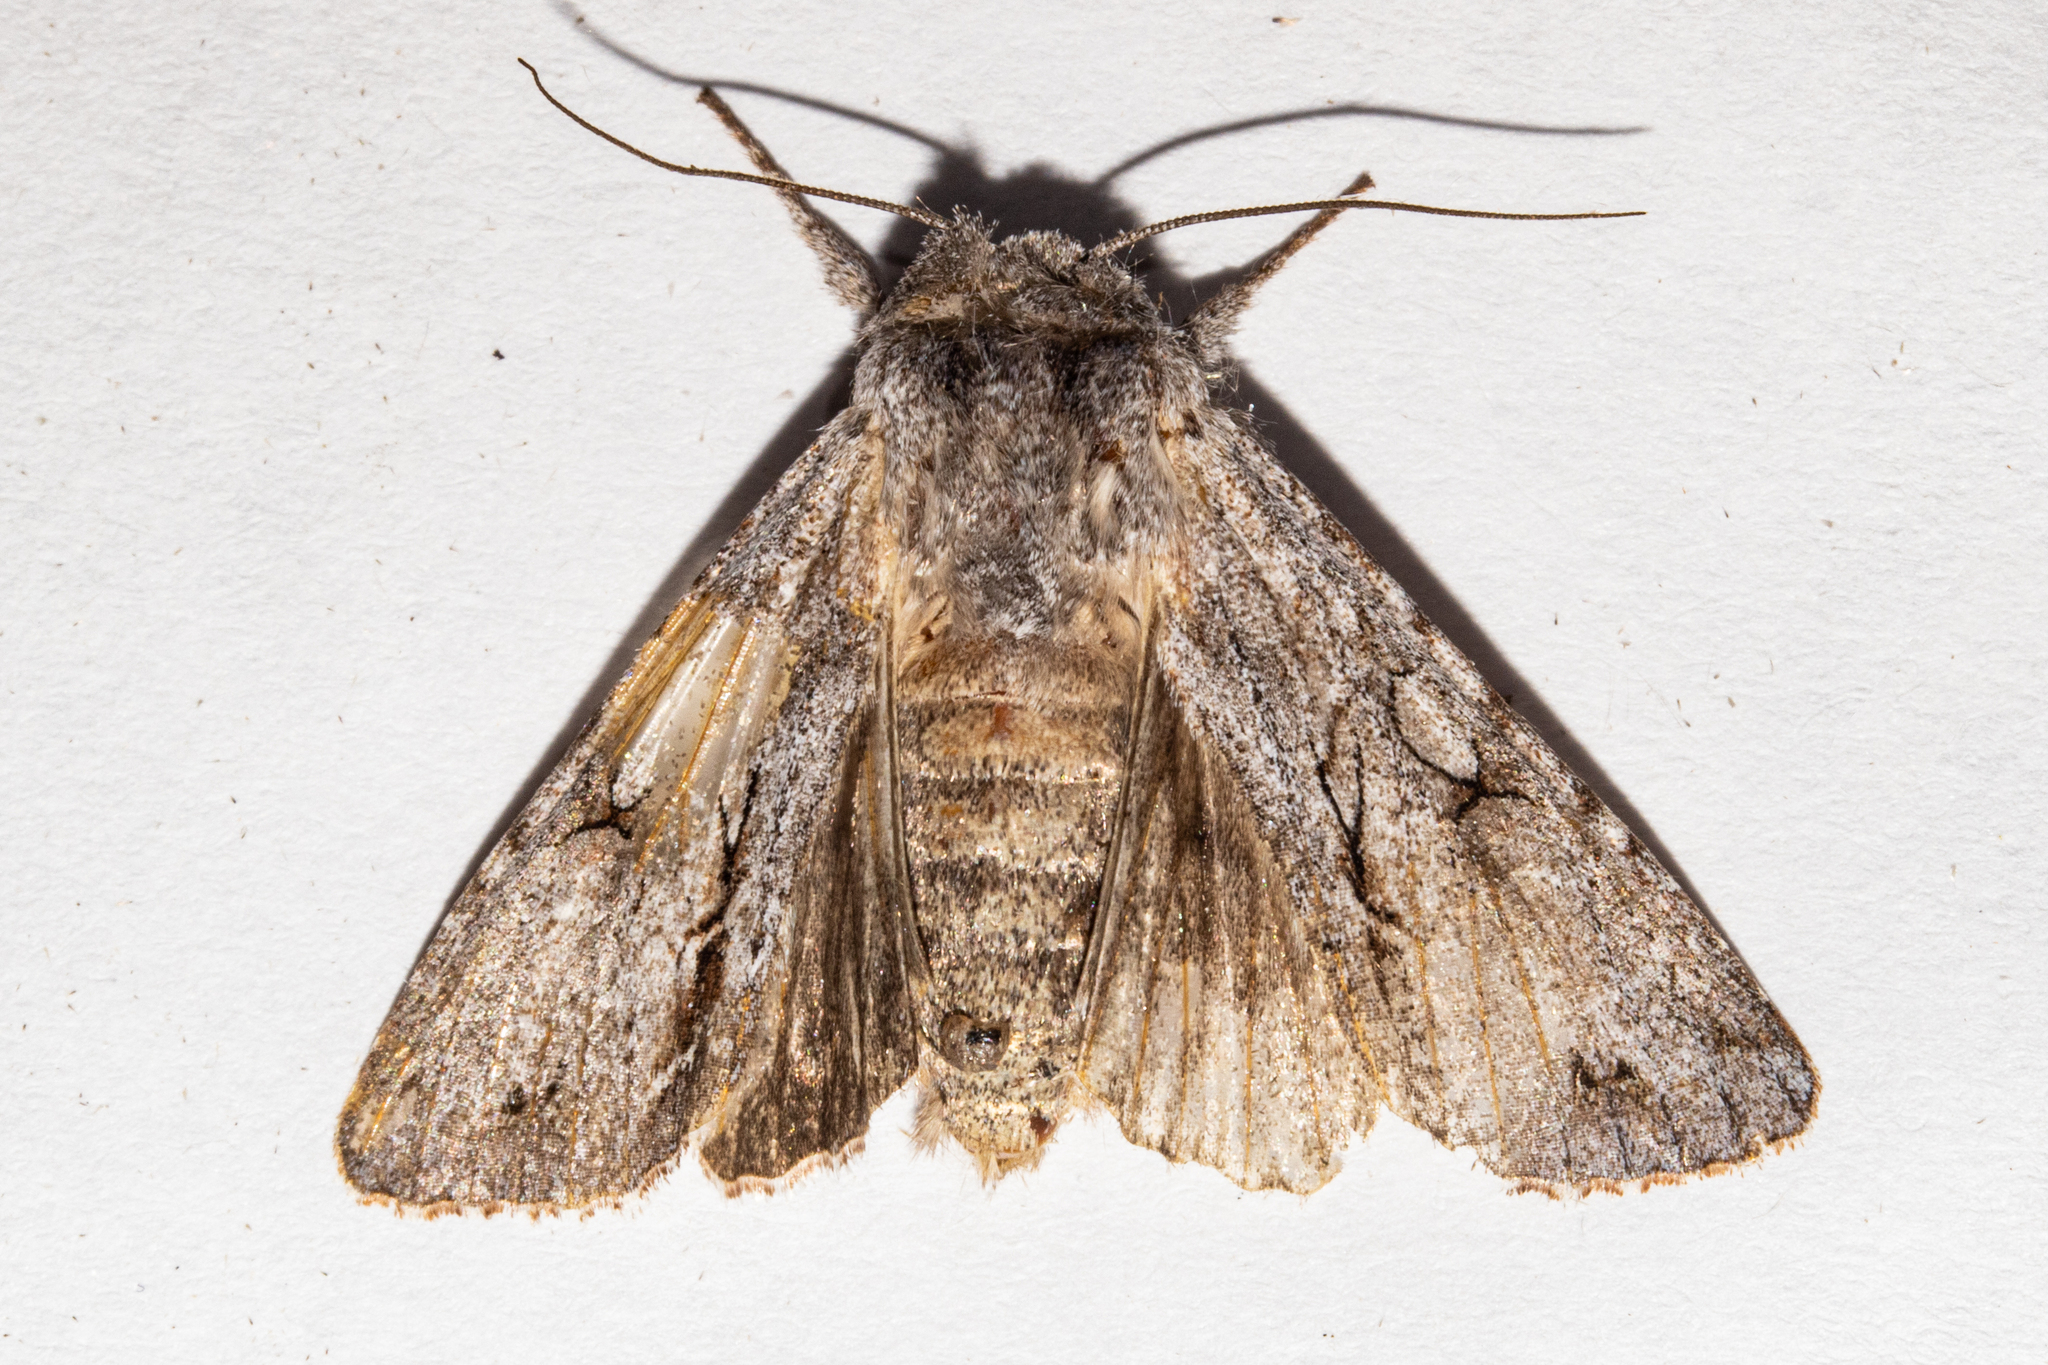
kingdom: Animalia
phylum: Arthropoda
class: Insecta
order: Lepidoptera
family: Noctuidae
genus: Ichneutica
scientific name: Ichneutica
